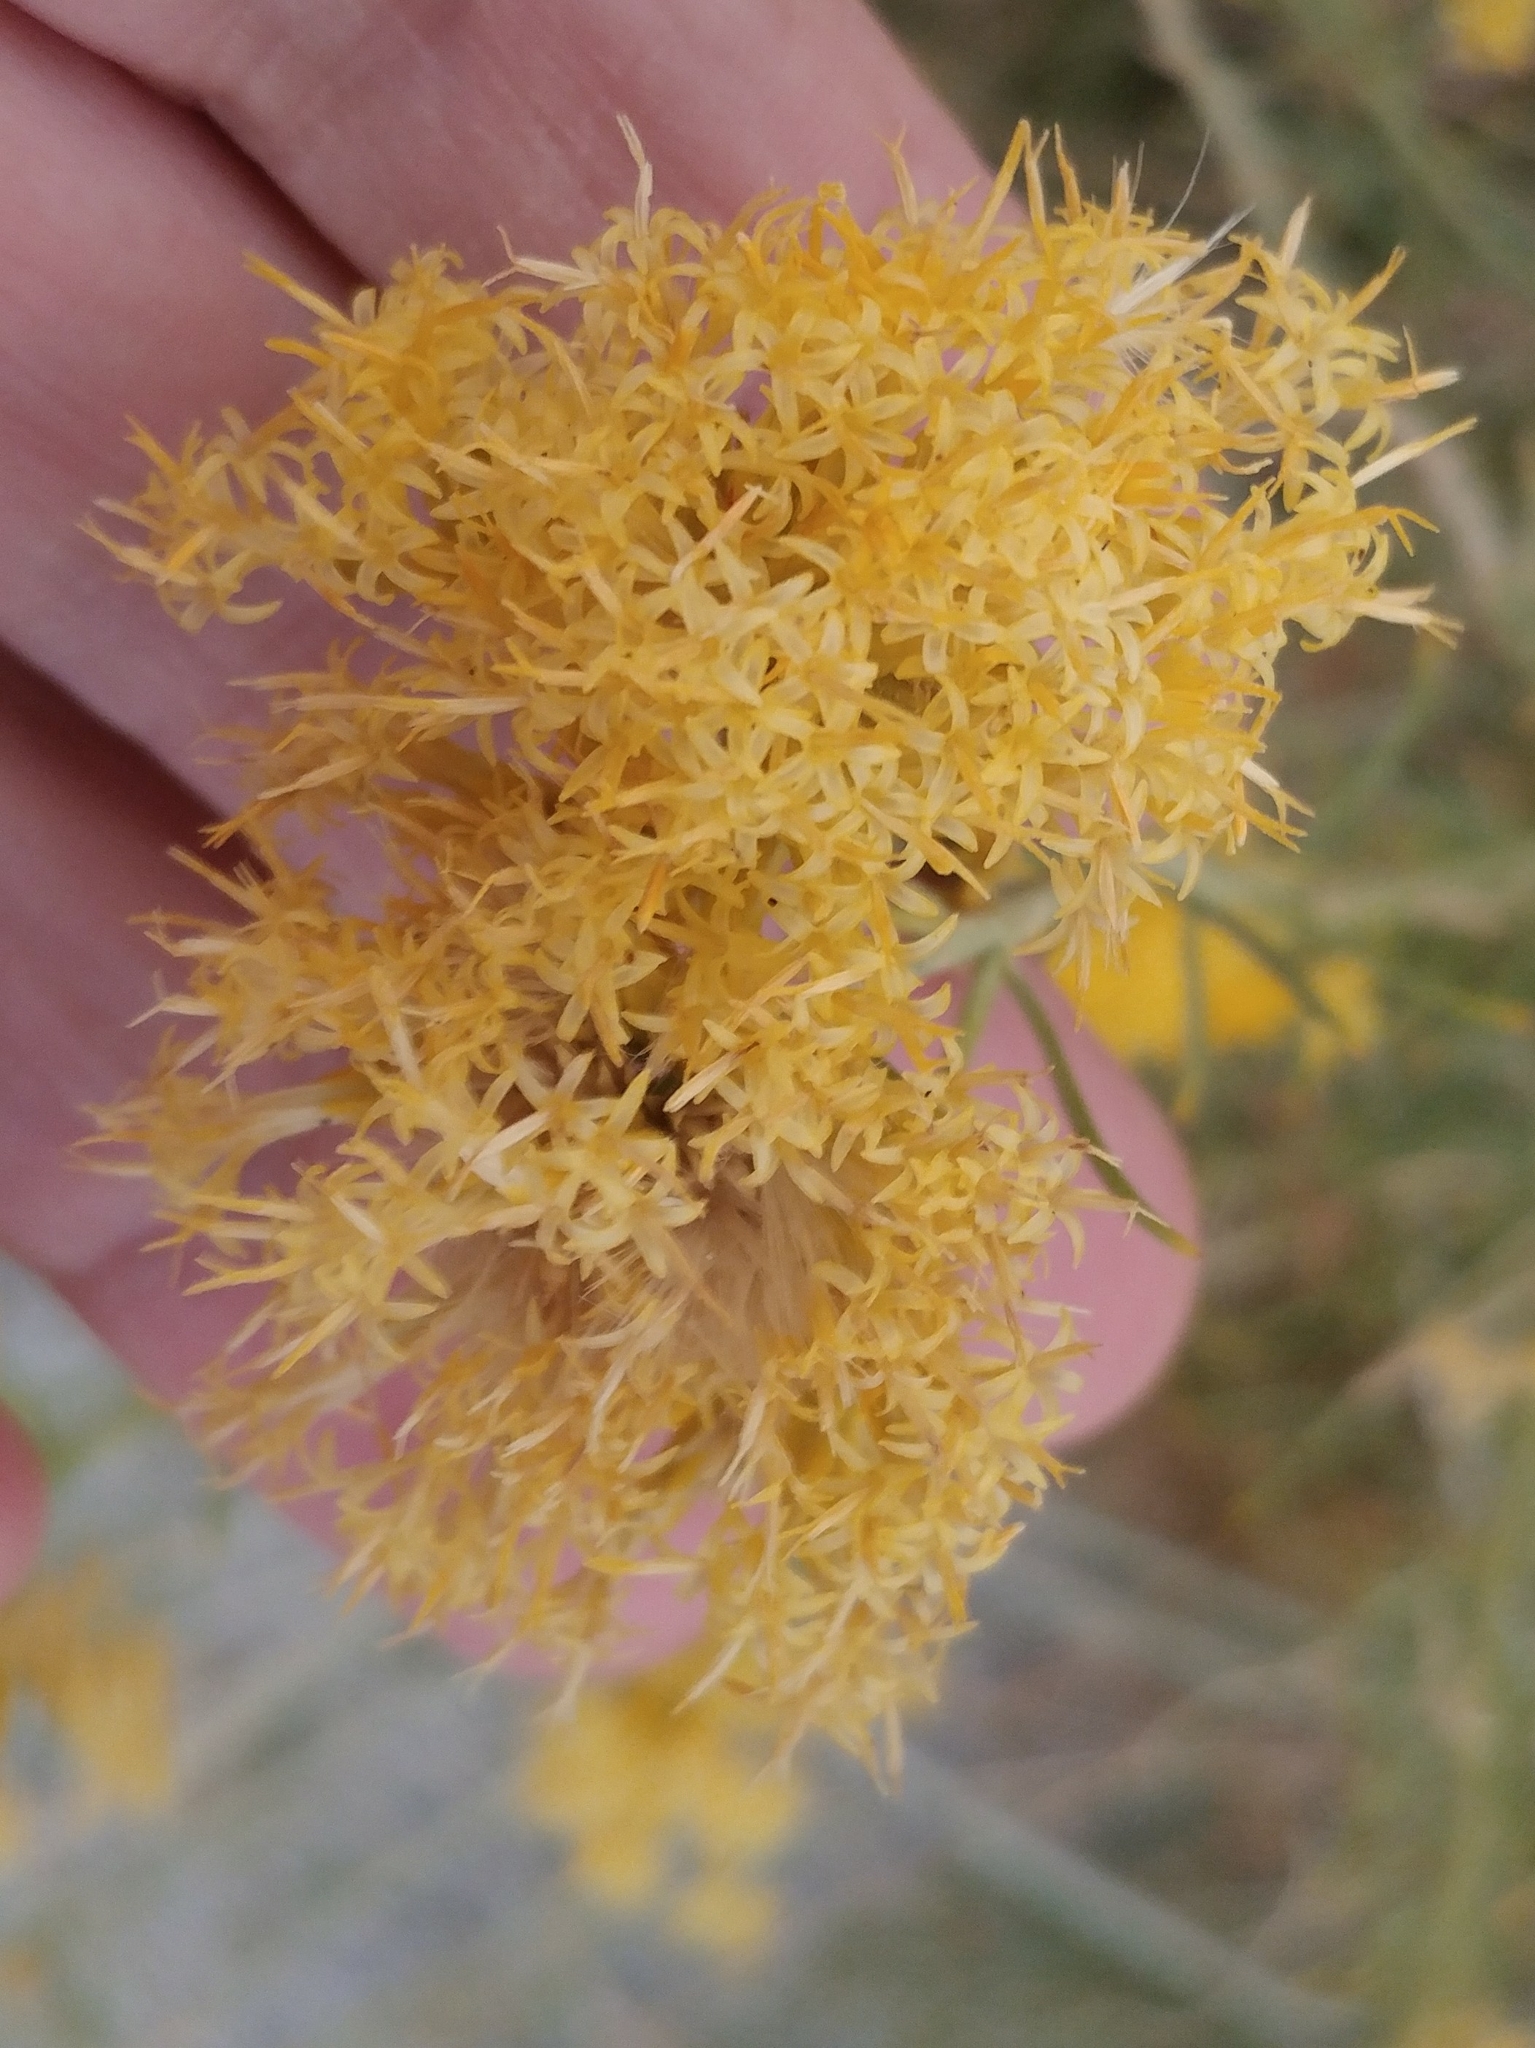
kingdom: Plantae
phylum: Tracheophyta
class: Magnoliopsida
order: Asterales
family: Asteraceae
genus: Ericameria
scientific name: Ericameria nauseosa
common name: Rubber rabbitbrush
